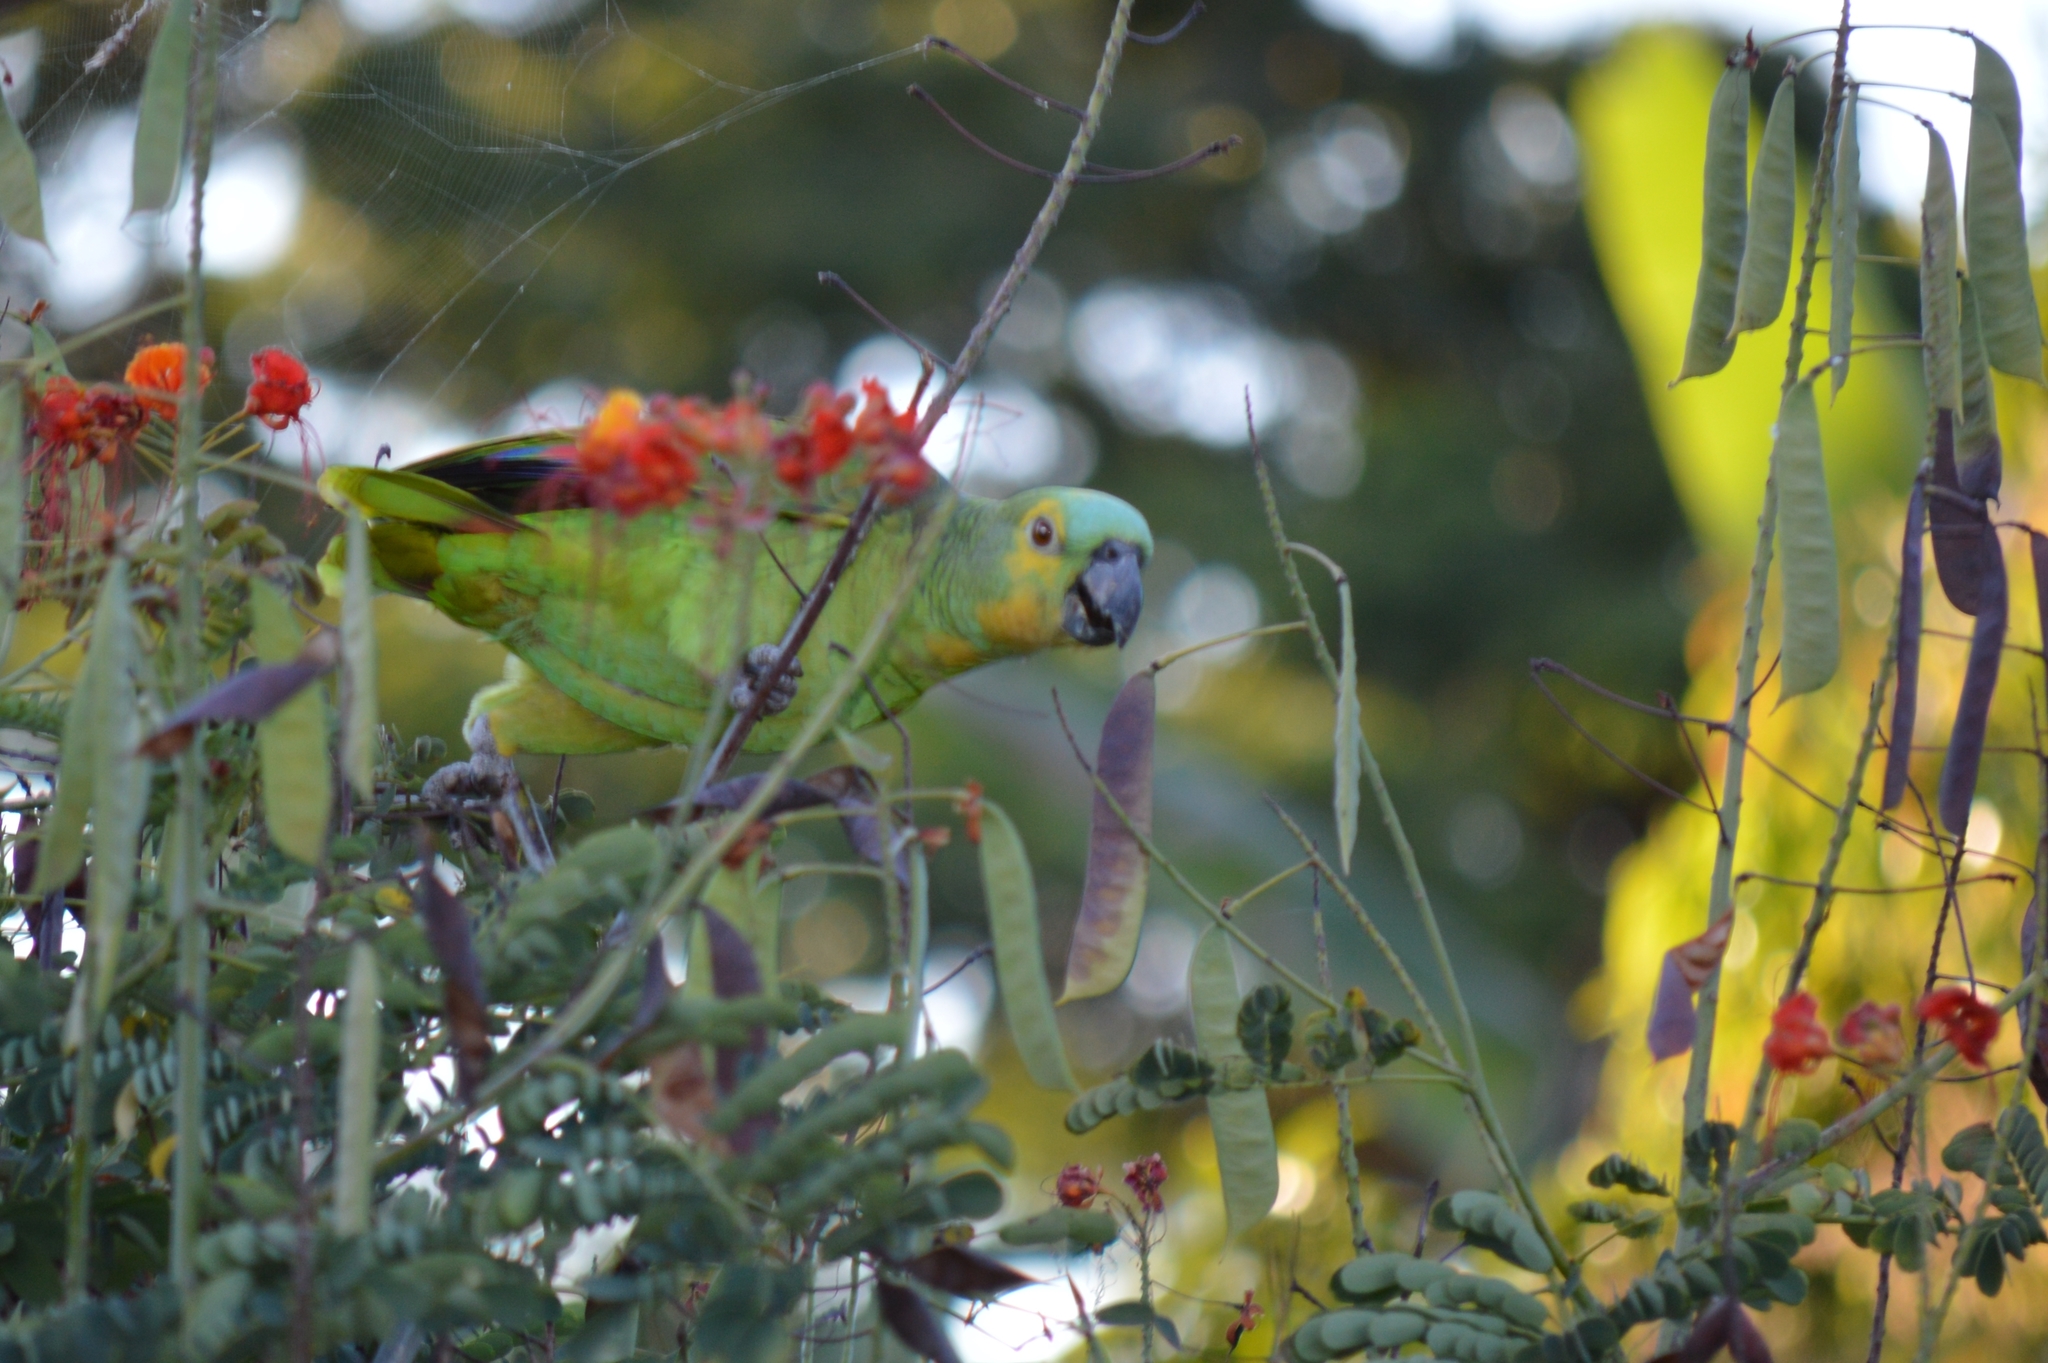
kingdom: Animalia
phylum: Chordata
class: Aves
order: Psittaciformes
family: Psittacidae
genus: Amazona
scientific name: Amazona aestiva
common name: Turquoise-fronted amazon
